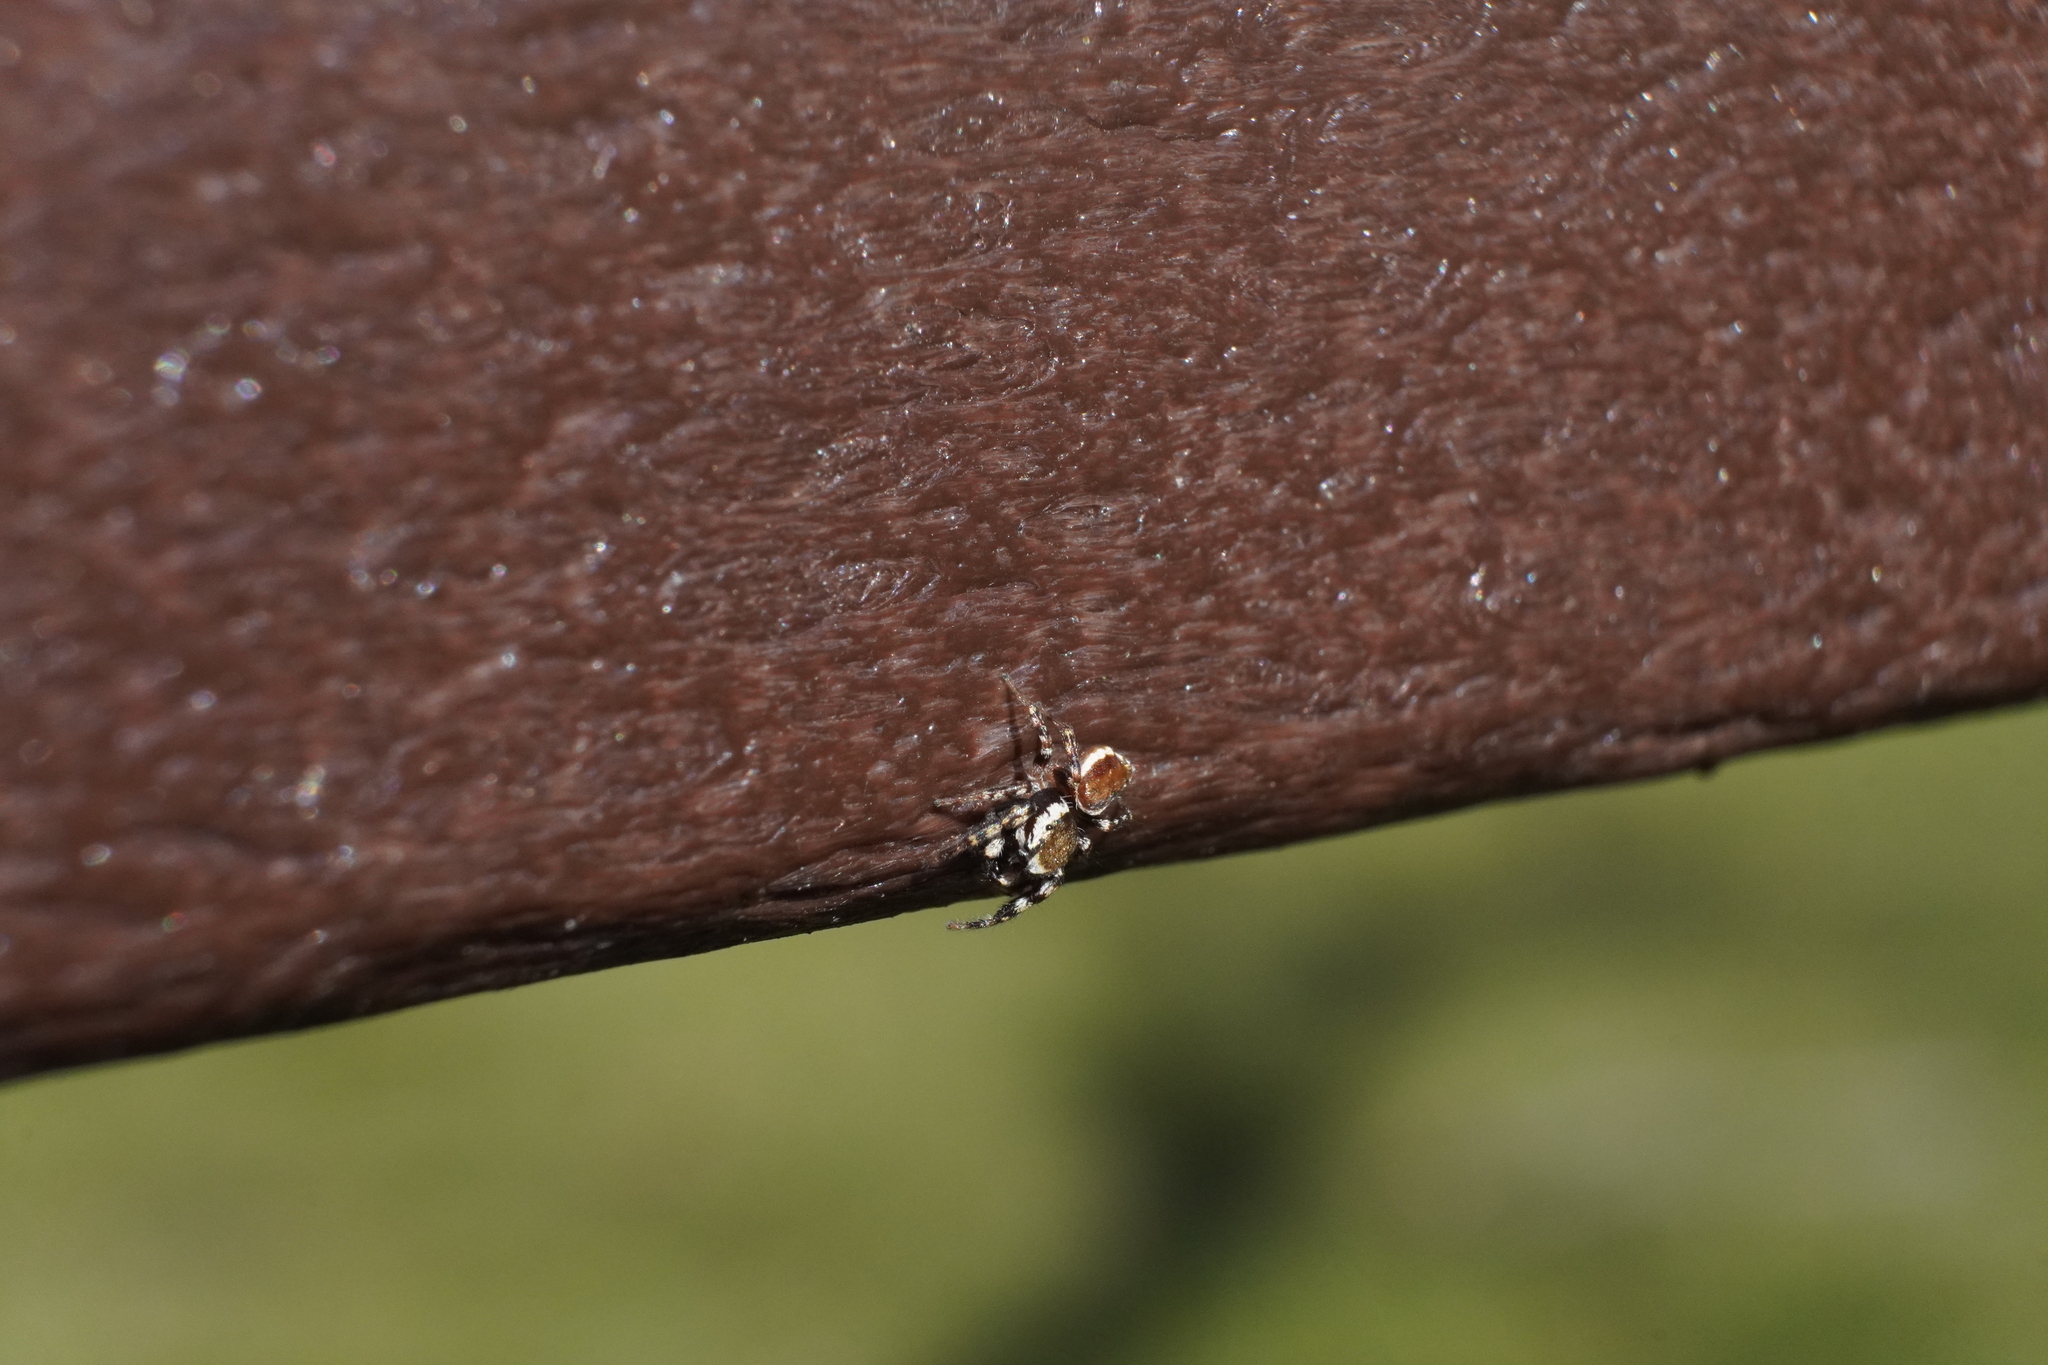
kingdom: Animalia
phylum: Arthropoda
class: Arachnida
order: Araneae
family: Salticidae
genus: Pelegrina
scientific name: Pelegrina proterva
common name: Common white-cheeked jumping spider
